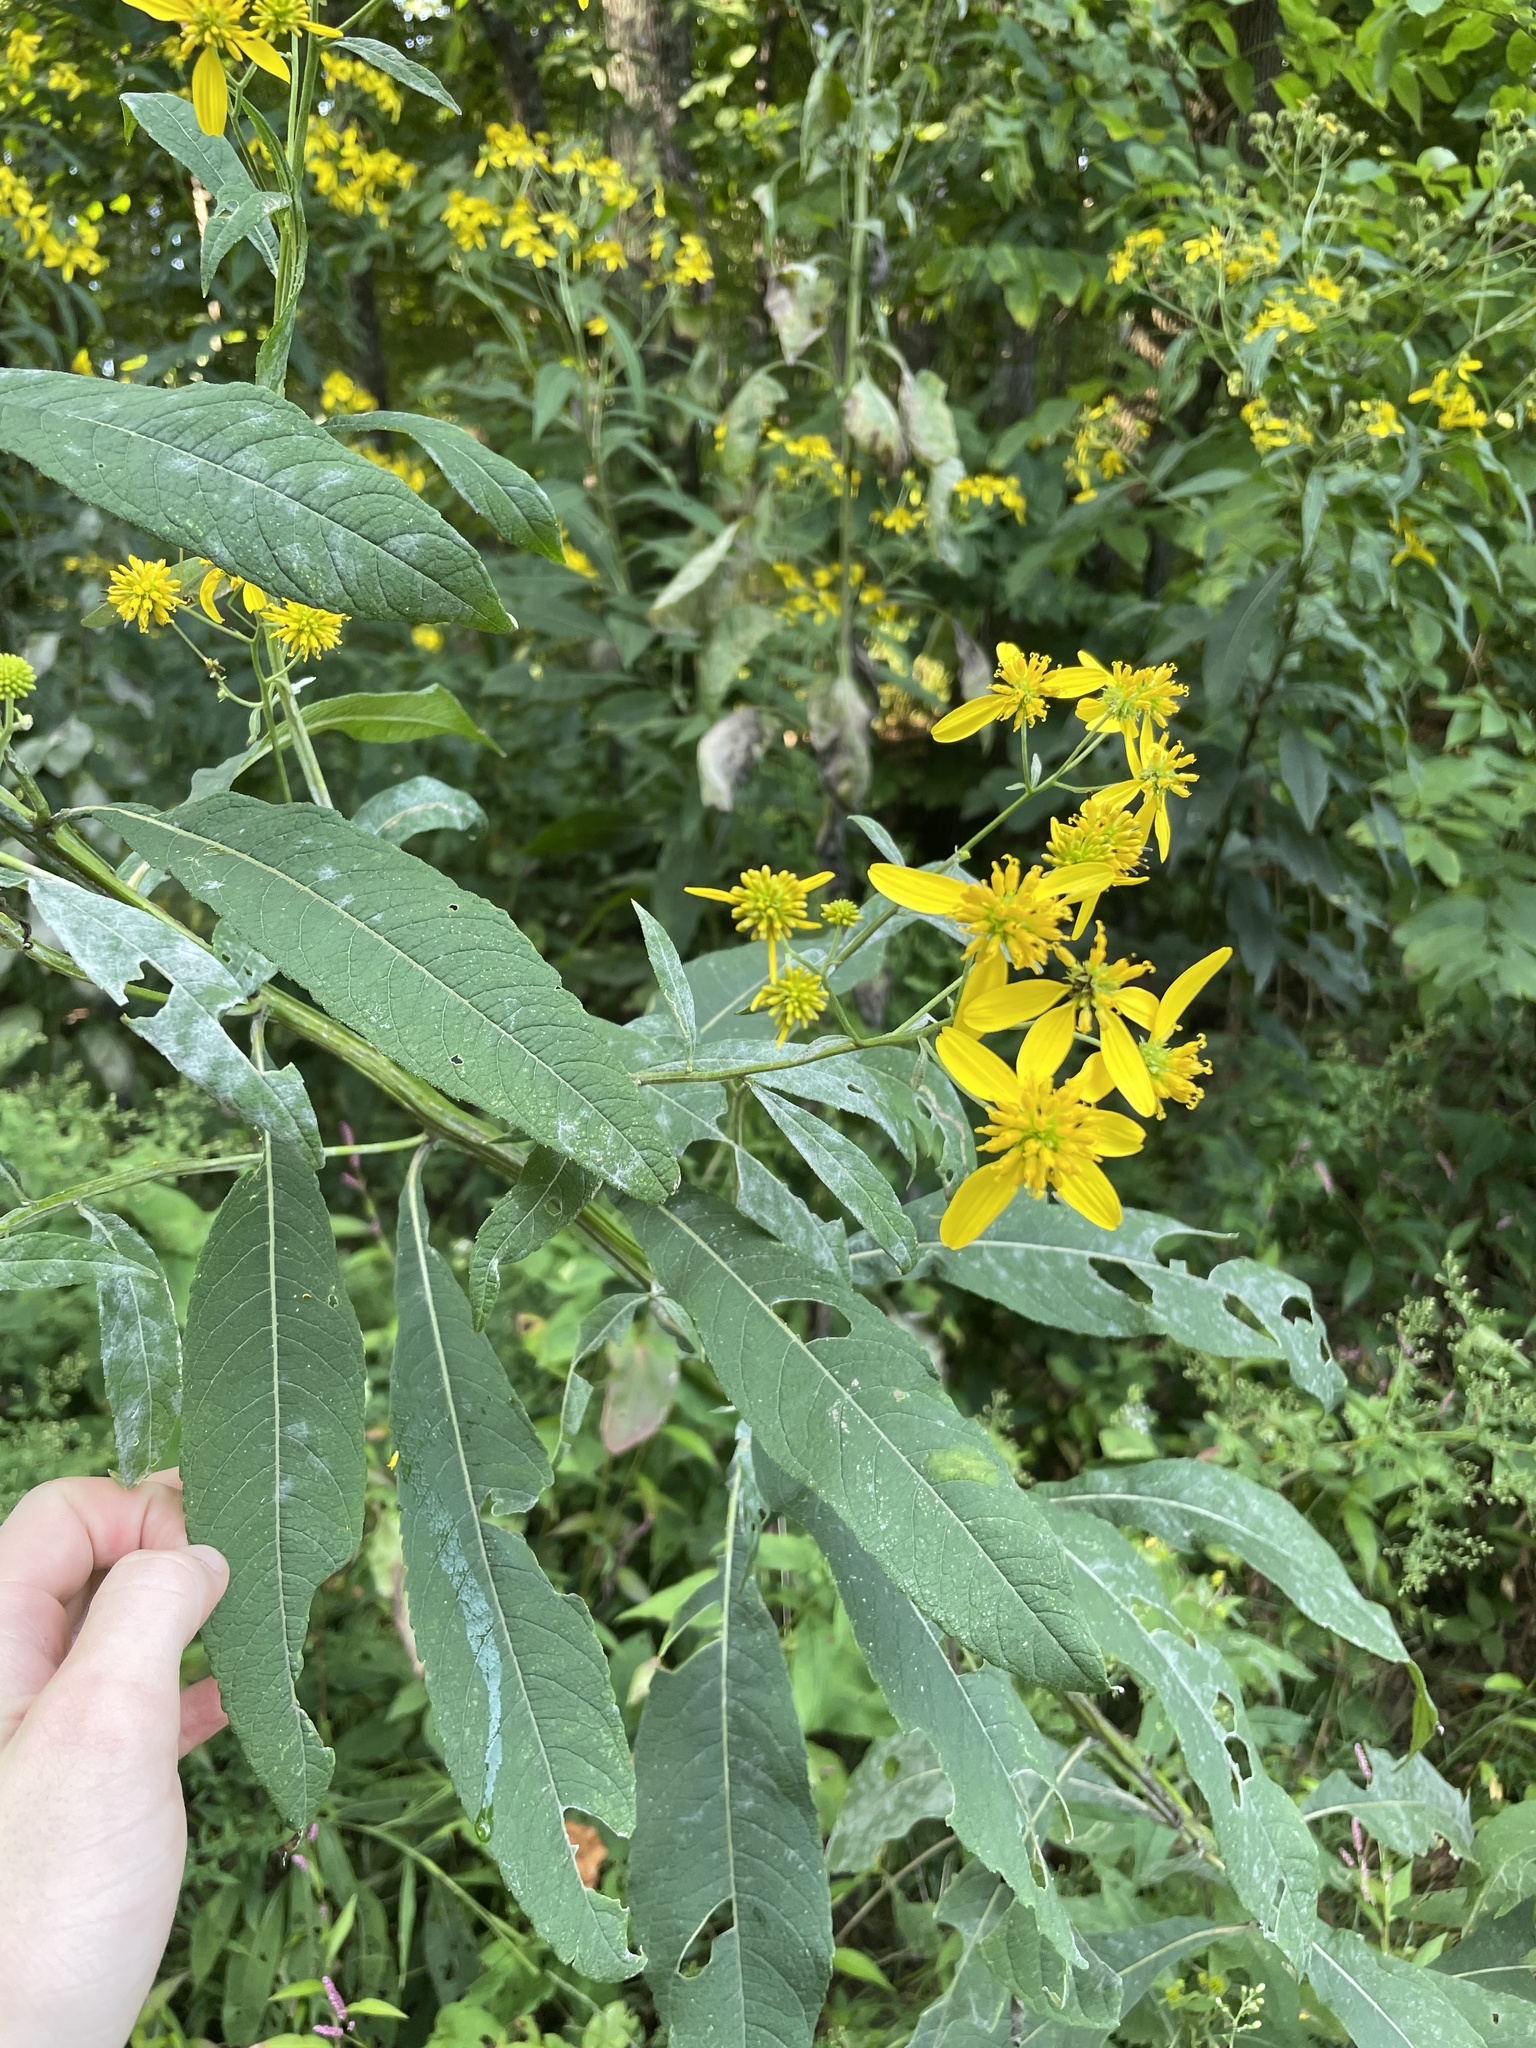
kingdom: Plantae
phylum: Tracheophyta
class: Magnoliopsida
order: Asterales
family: Asteraceae
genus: Verbesina
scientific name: Verbesina alternifolia
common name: Wingstem
